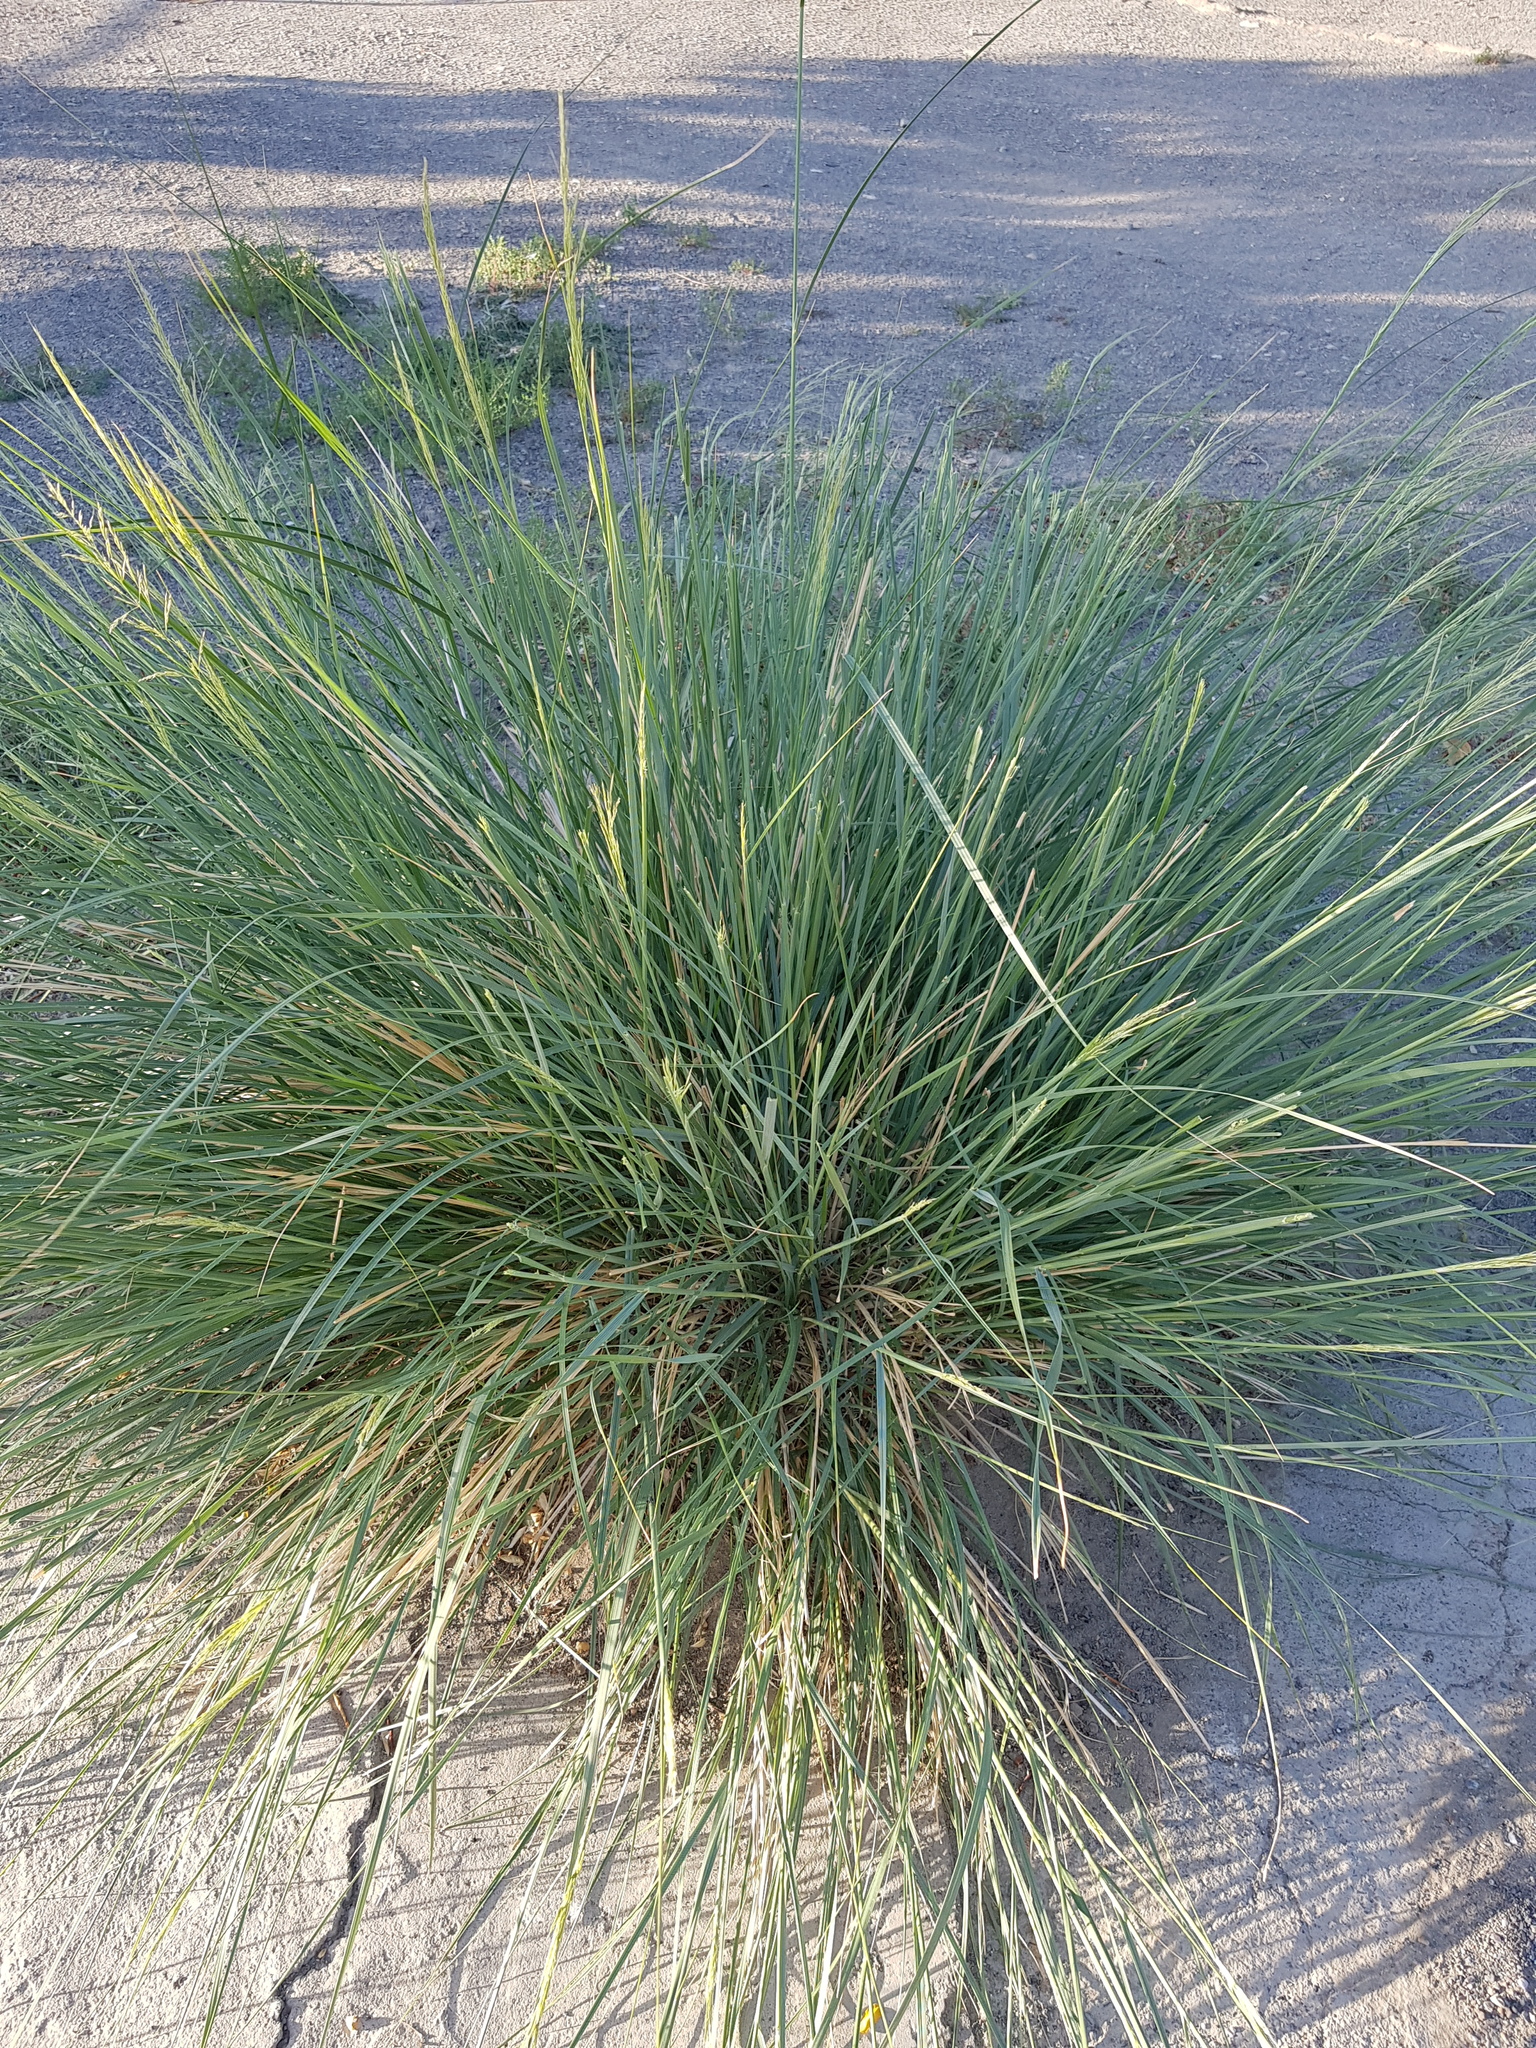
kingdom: Plantae
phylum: Tracheophyta
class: Liliopsida
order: Poales
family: Poaceae
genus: Neotrinia
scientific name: Neotrinia splendens
